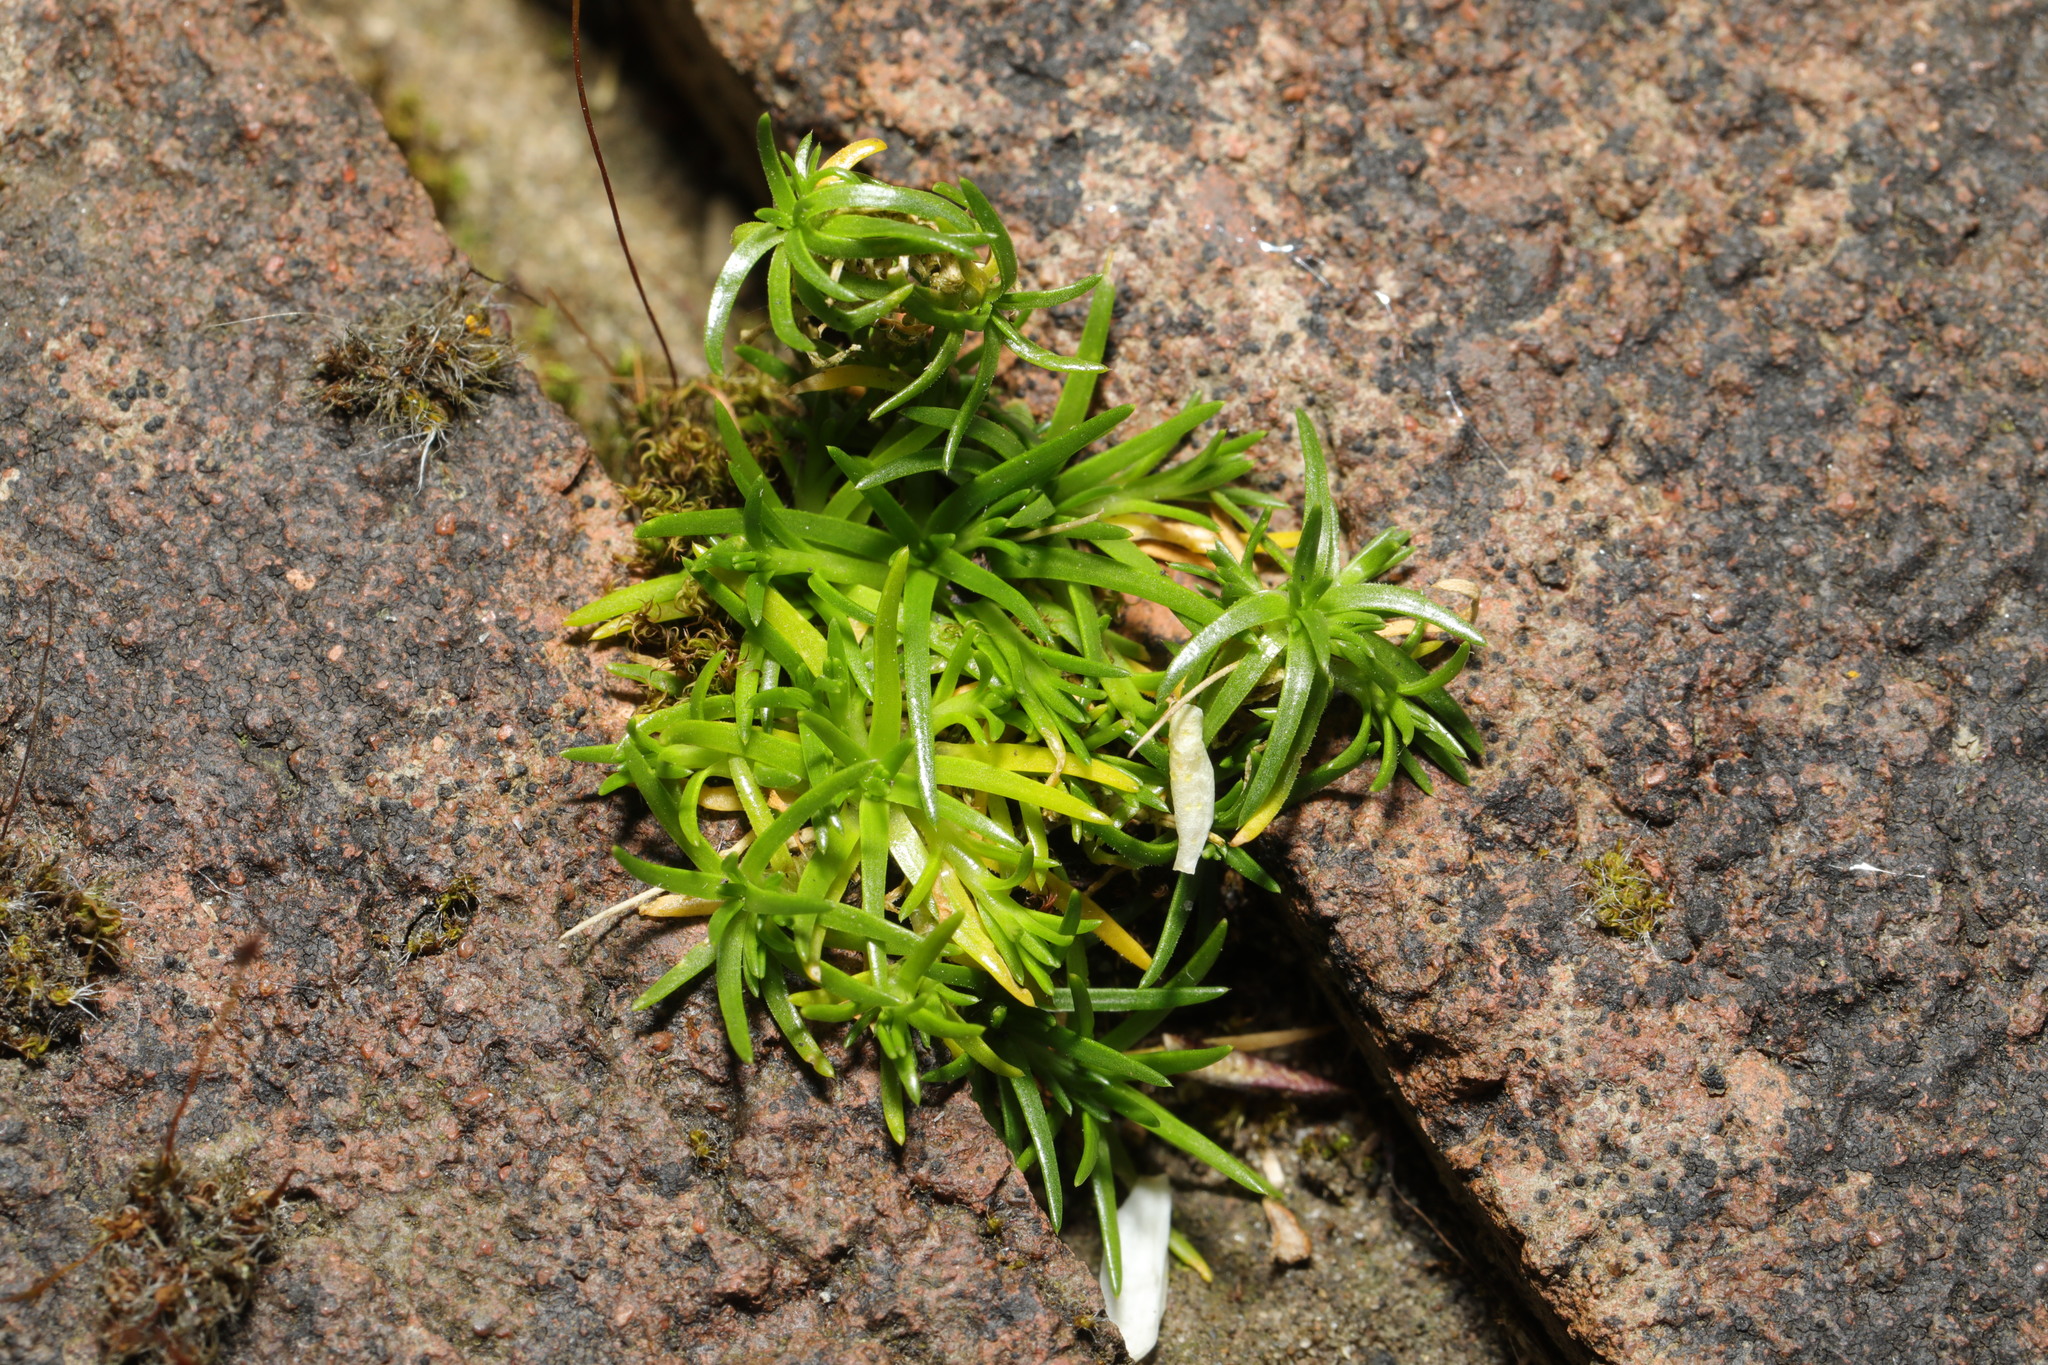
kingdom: Plantae
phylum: Tracheophyta
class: Magnoliopsida
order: Caryophyllales
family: Caryophyllaceae
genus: Sagina
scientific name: Sagina procumbens
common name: Procumbent pearlwort
